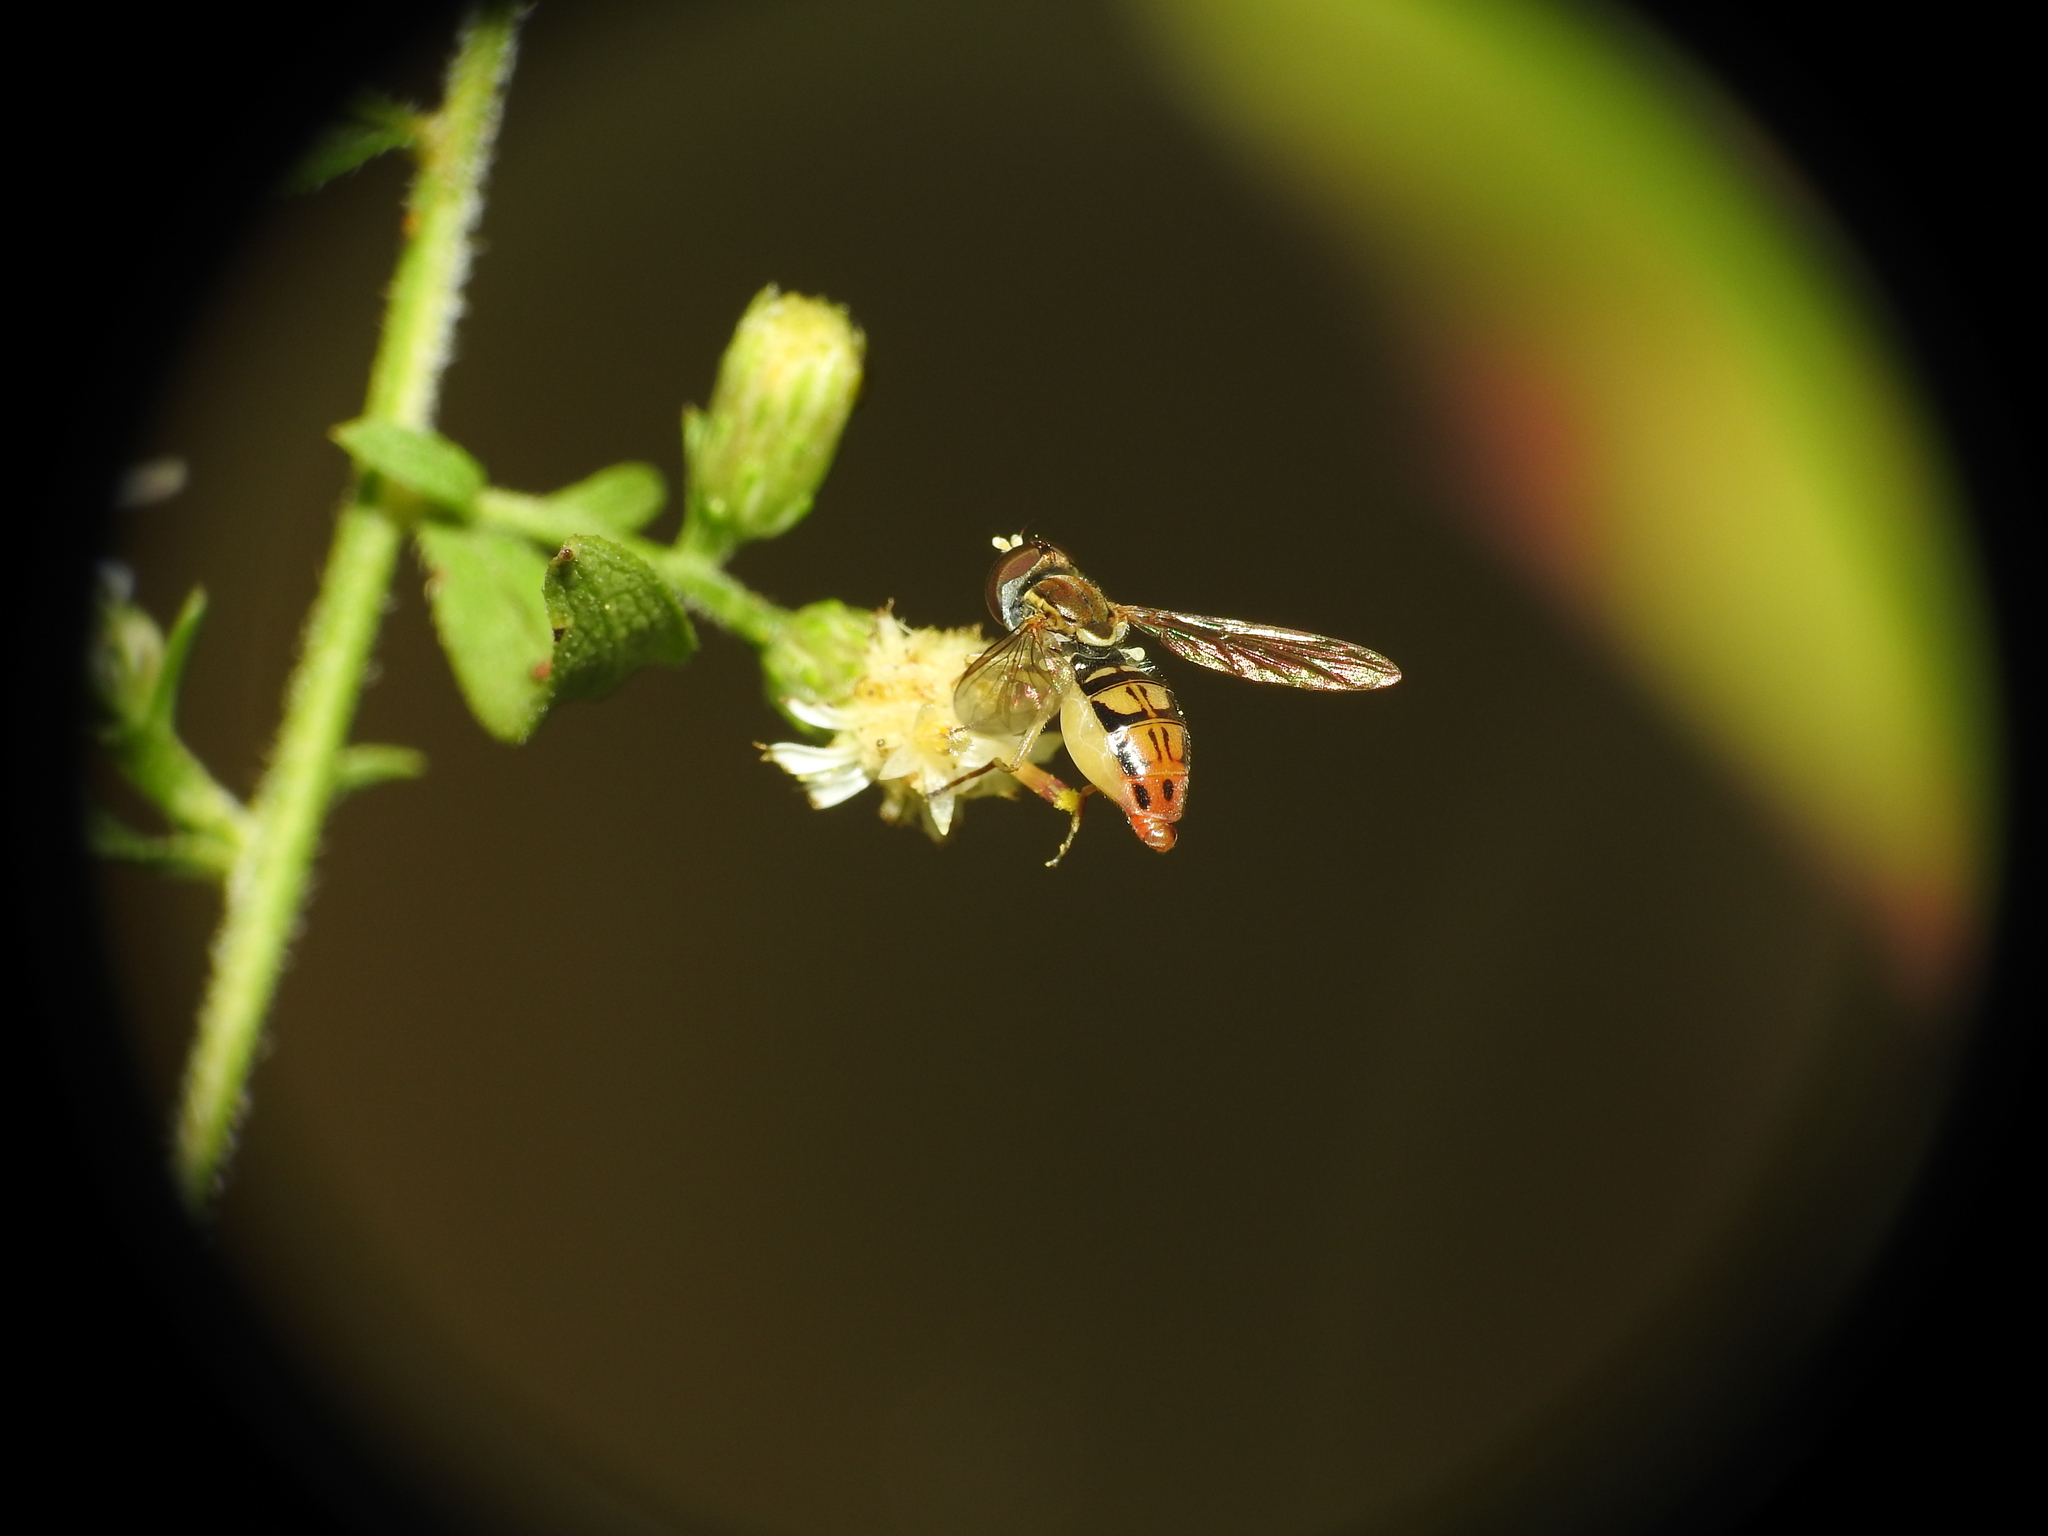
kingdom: Animalia
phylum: Arthropoda
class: Insecta
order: Diptera
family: Syrphidae
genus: Toxomerus
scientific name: Toxomerus marginatus
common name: Syrphid fly
